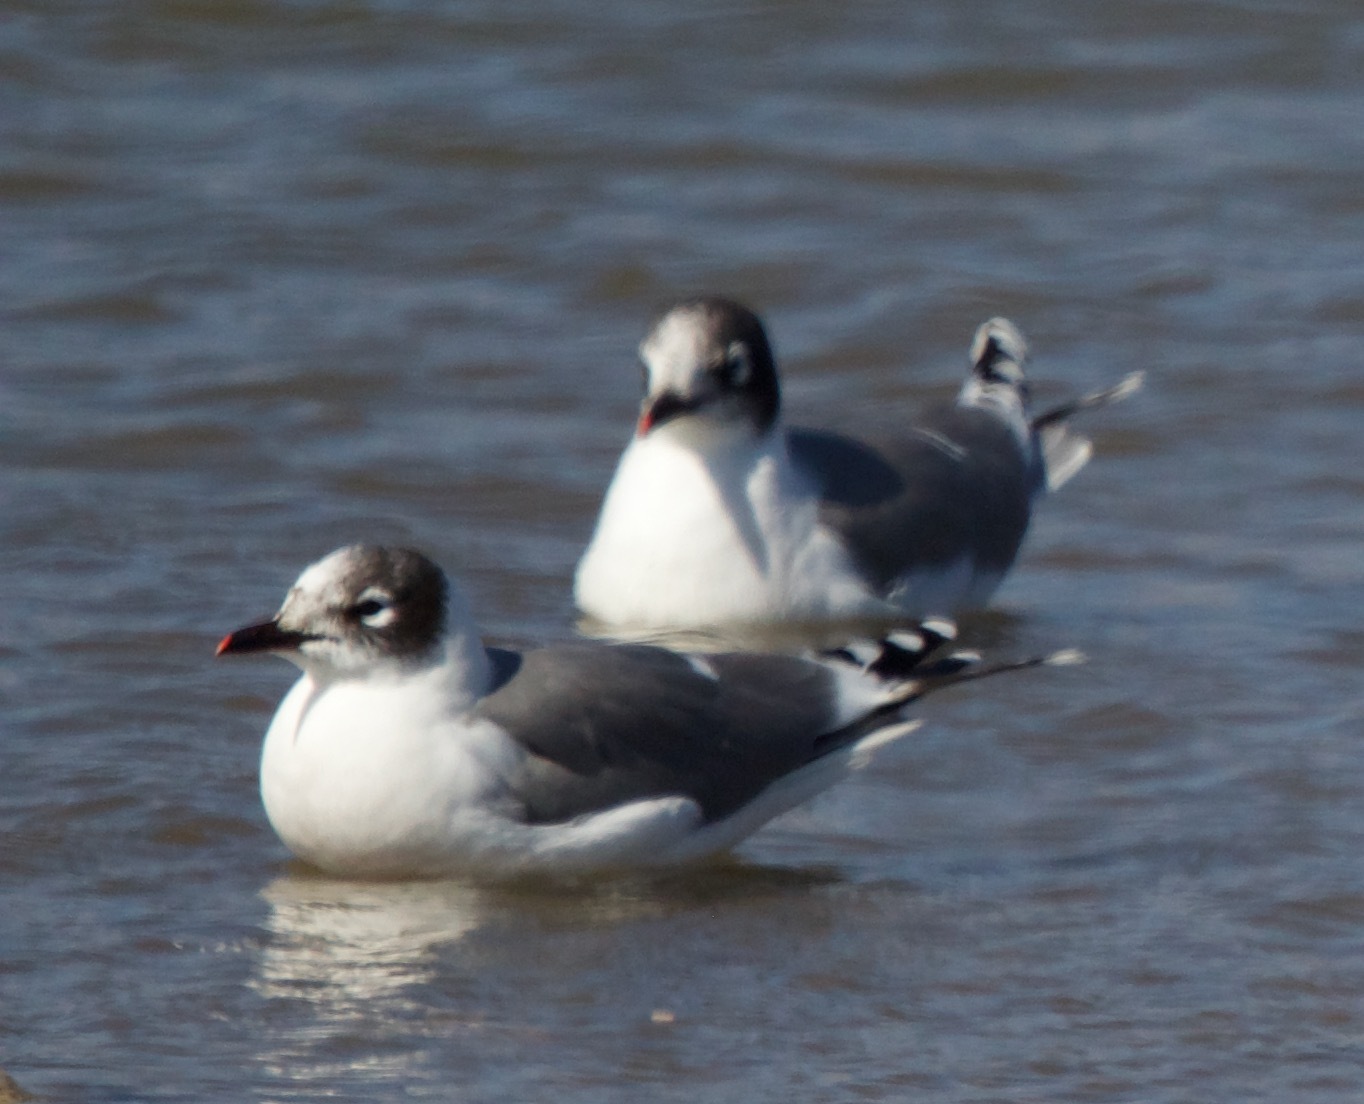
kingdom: Animalia
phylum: Chordata
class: Aves
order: Charadriiformes
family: Laridae
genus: Leucophaeus
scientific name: Leucophaeus pipixcan
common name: Franklin's gull
